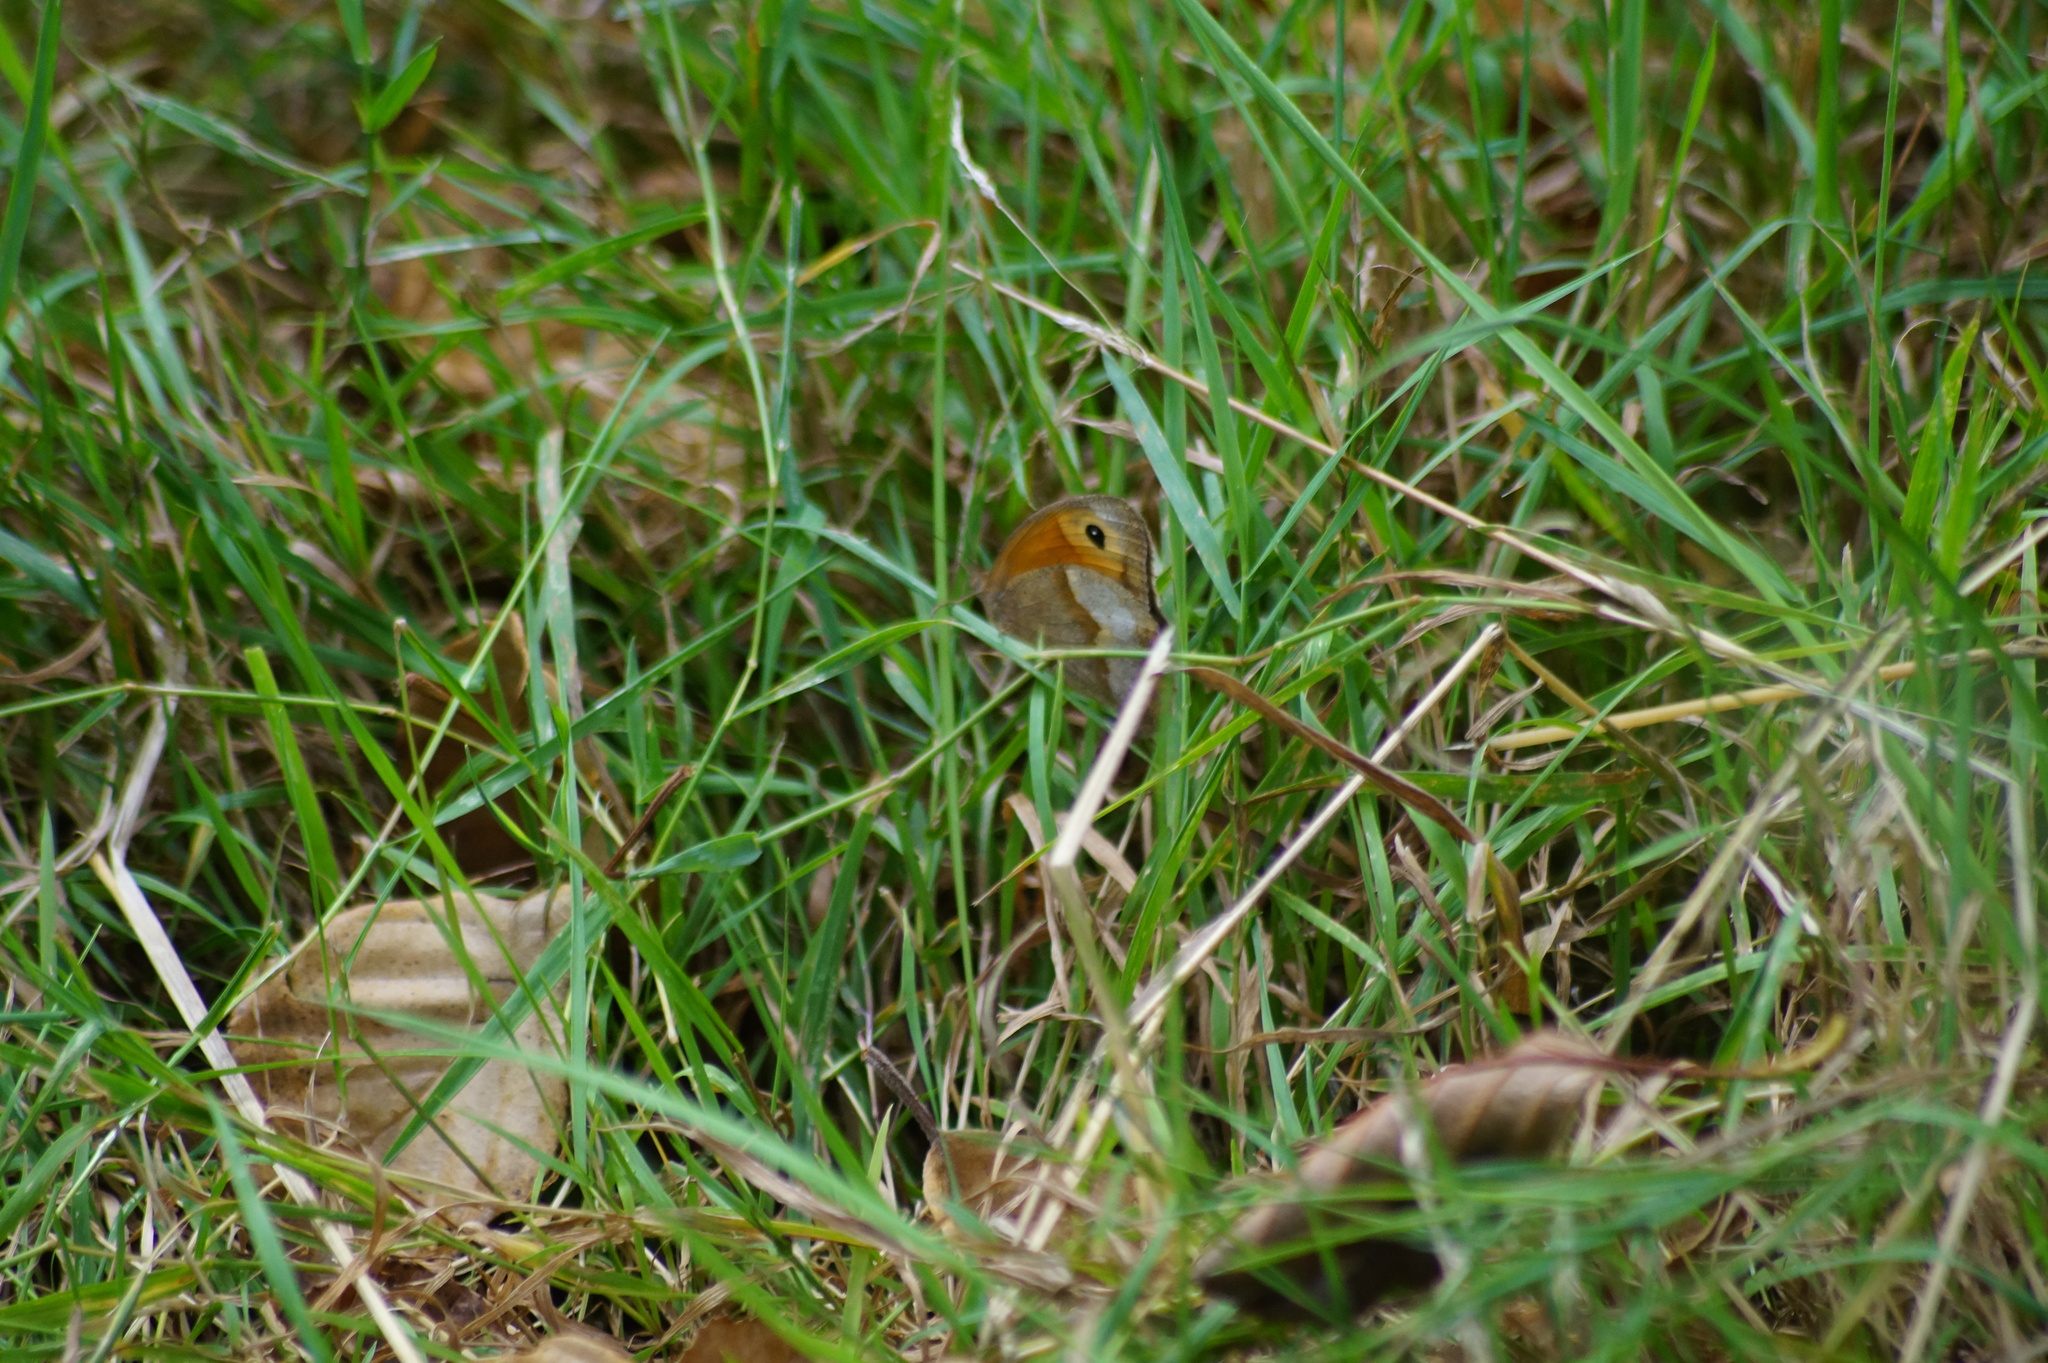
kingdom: Animalia
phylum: Arthropoda
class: Insecta
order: Lepidoptera
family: Nymphalidae
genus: Maniola
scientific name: Maniola jurtina
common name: Meadow brown
